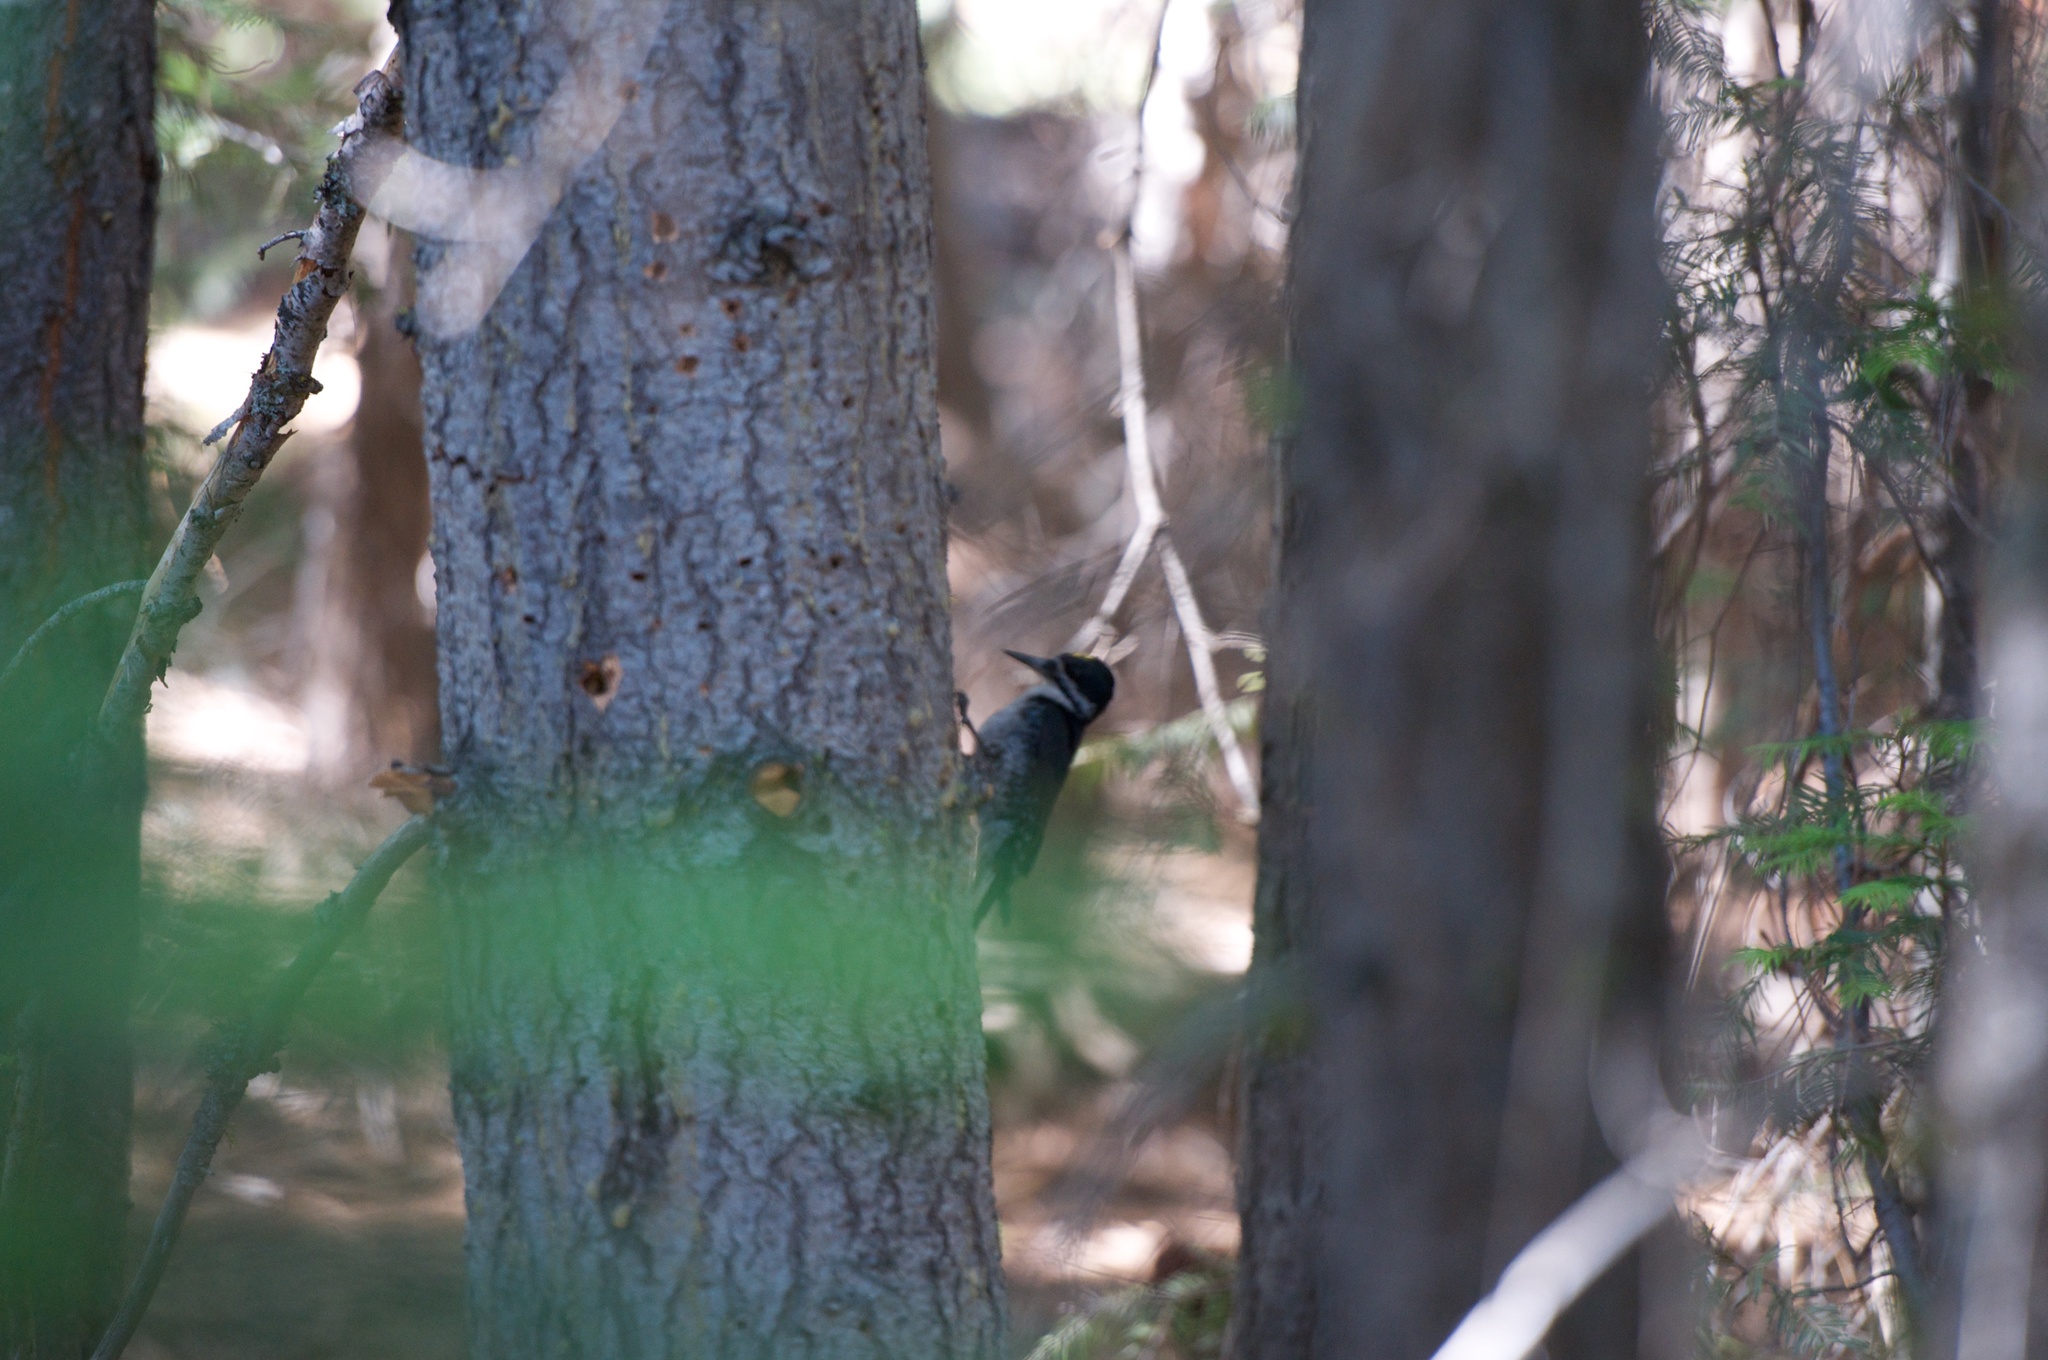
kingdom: Animalia
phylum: Chordata
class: Aves
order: Piciformes
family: Picidae
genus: Picoides
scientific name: Picoides arcticus
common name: Black-backed woodpecker
